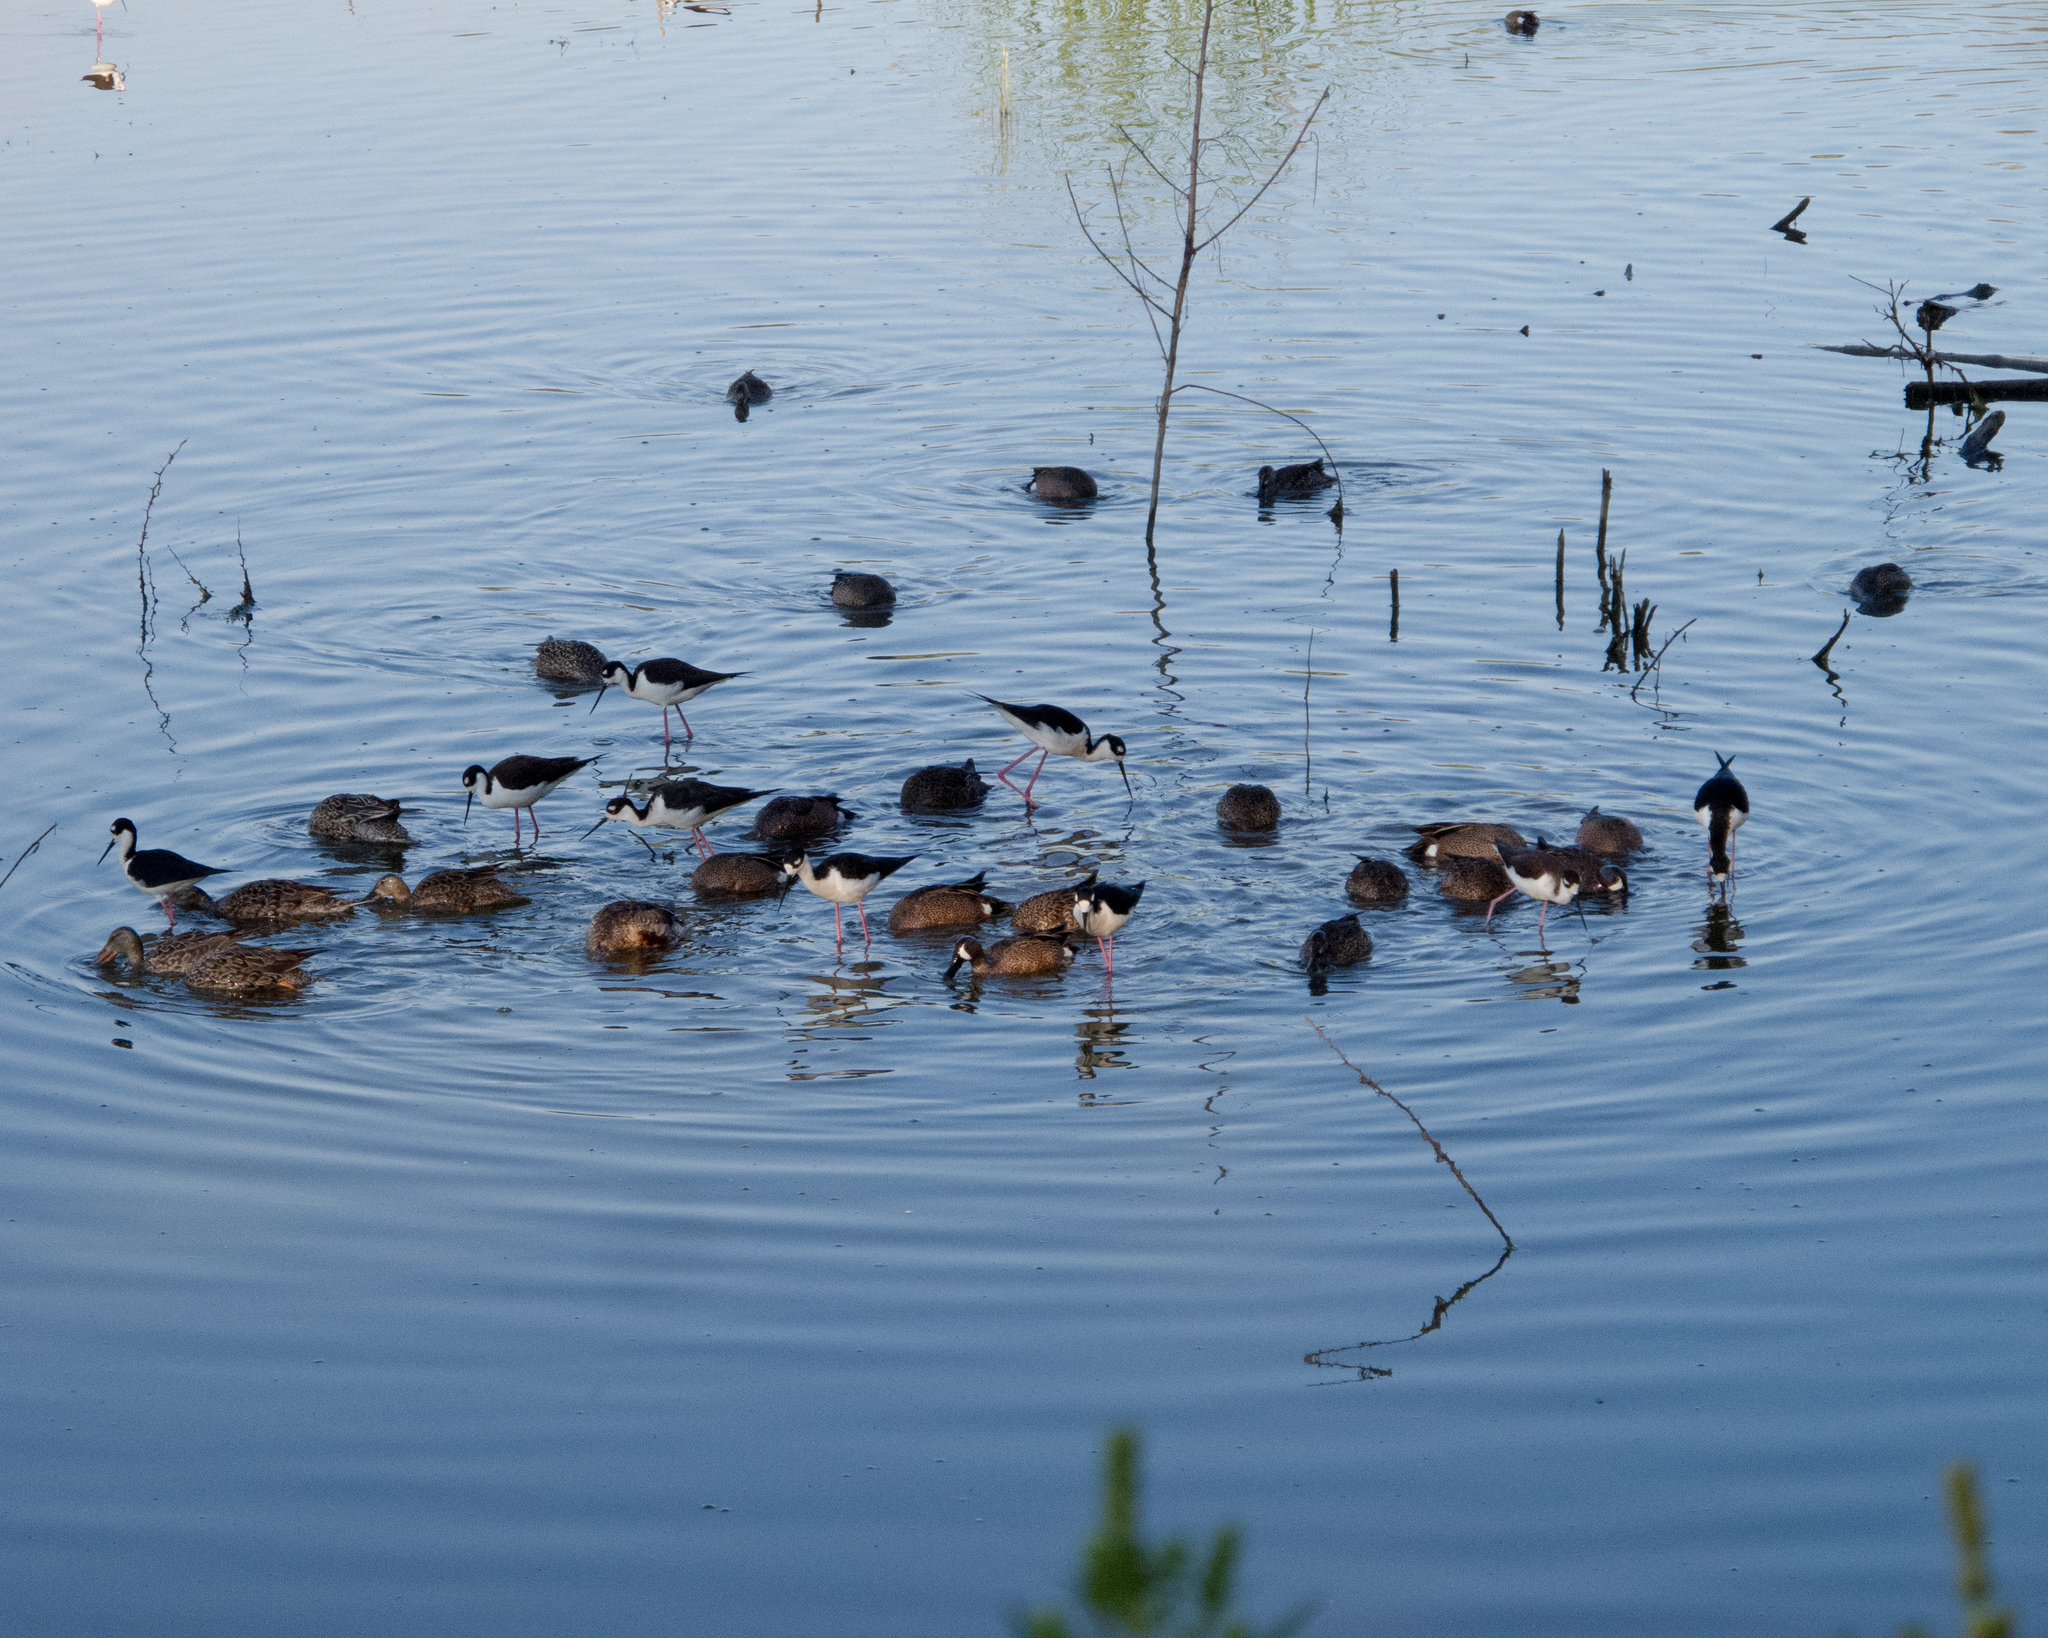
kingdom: Animalia
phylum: Chordata
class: Aves
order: Anseriformes
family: Anatidae
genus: Spatula
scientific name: Spatula discors
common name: Blue-winged teal
